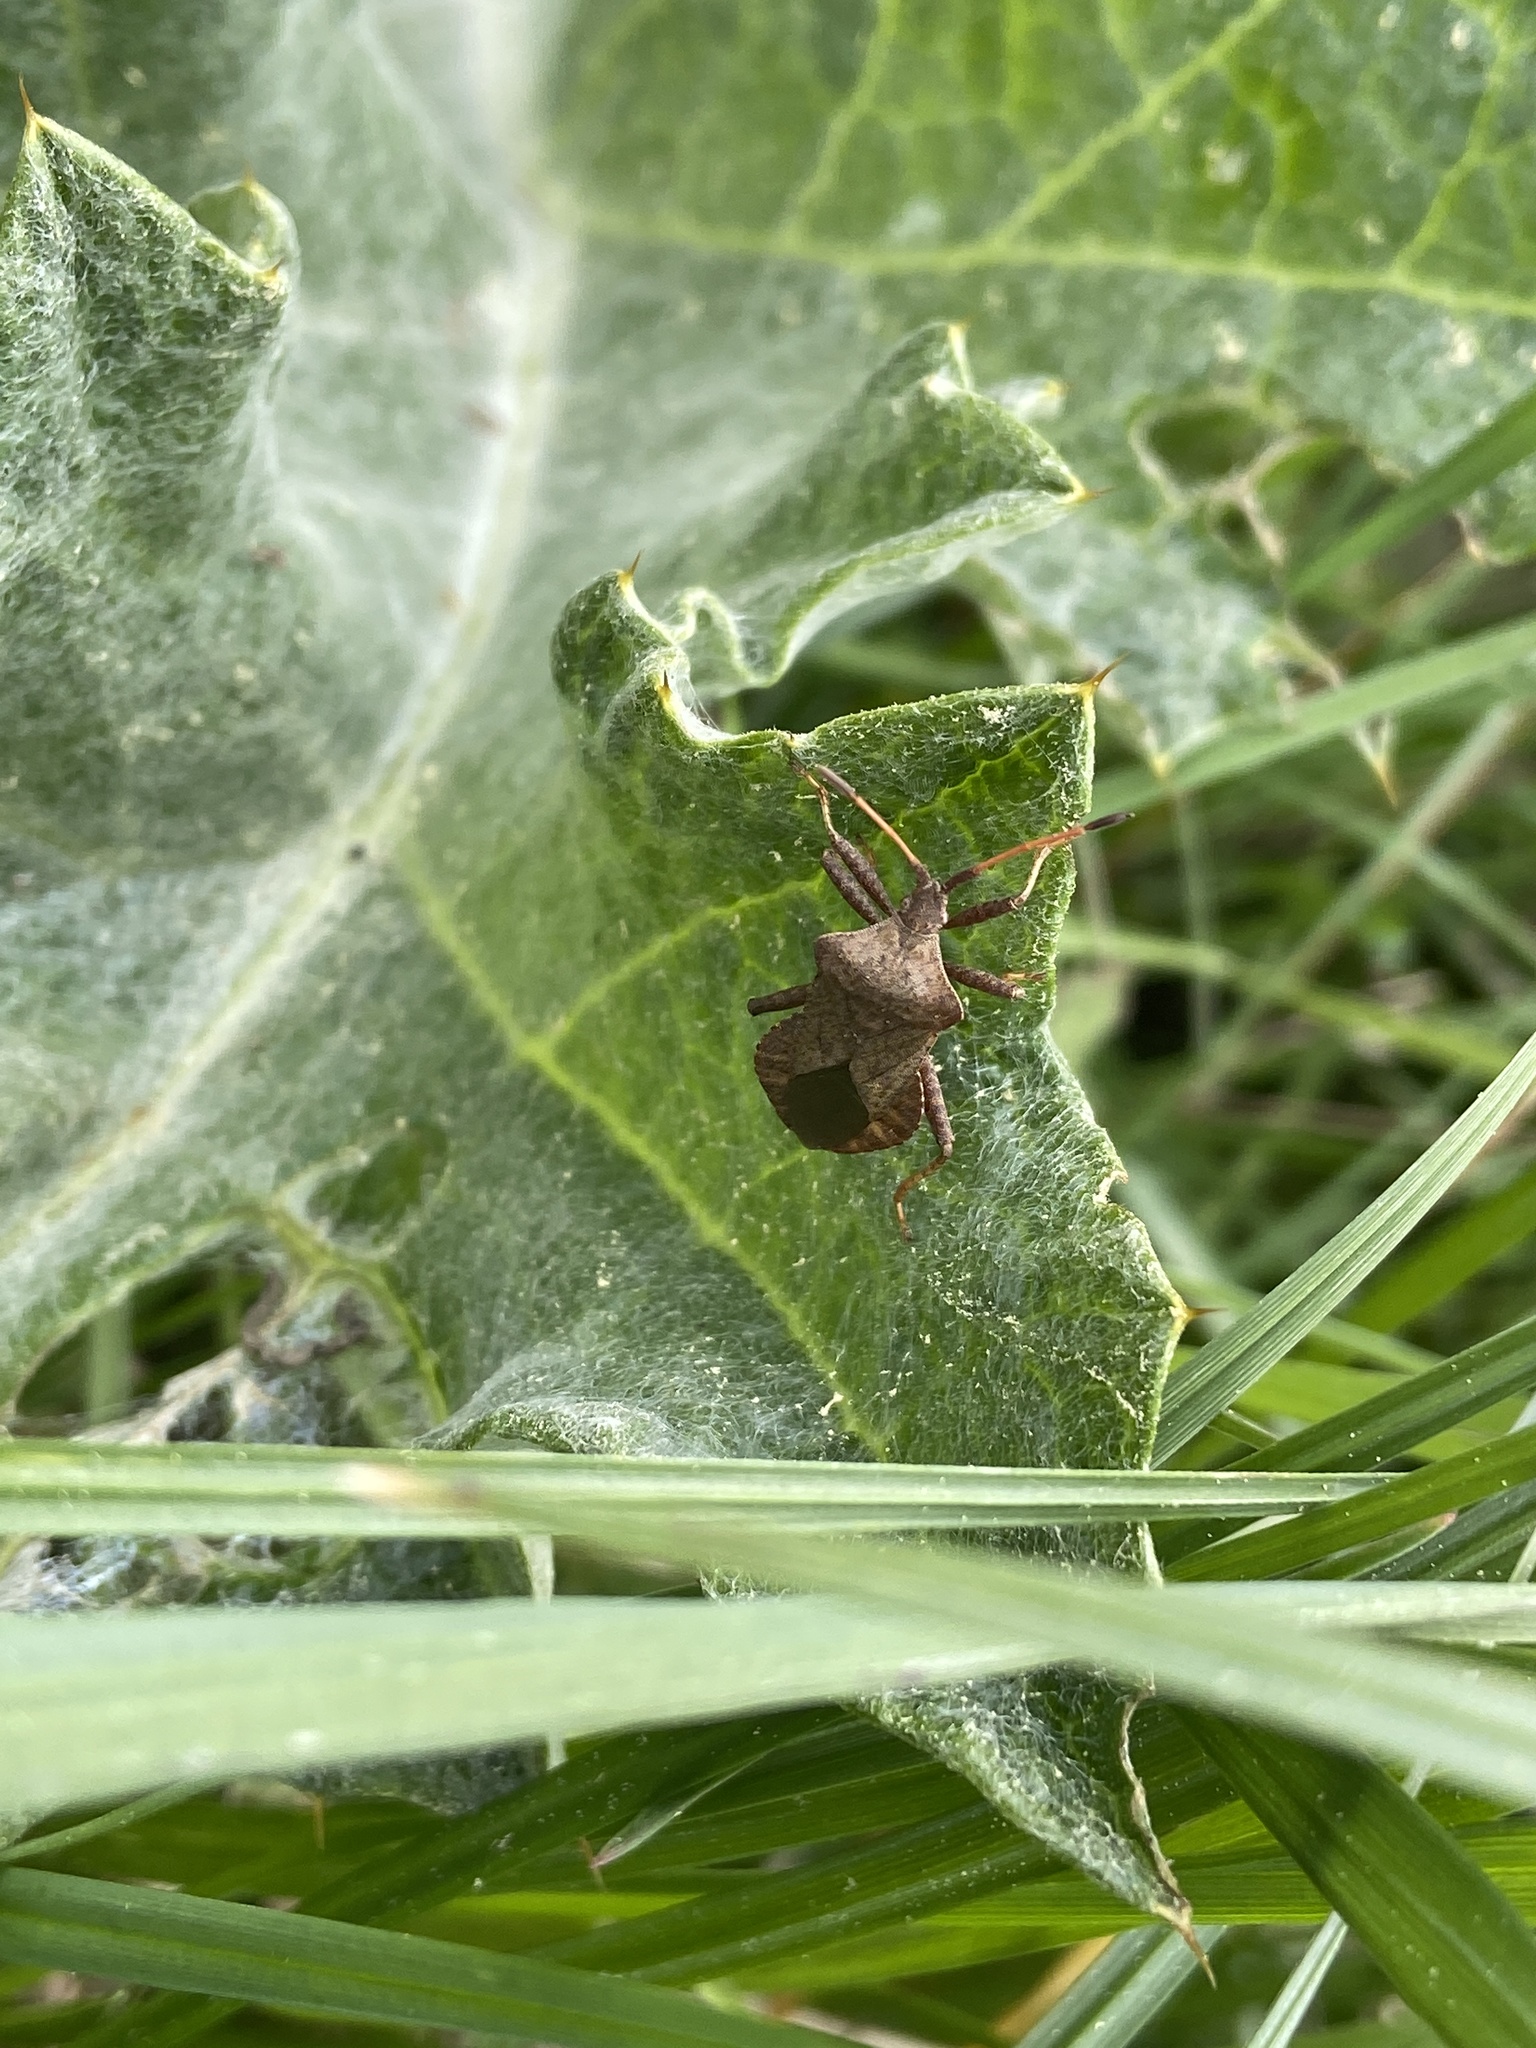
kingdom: Animalia
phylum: Arthropoda
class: Insecta
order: Hemiptera
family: Coreidae
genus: Coreus
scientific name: Coreus marginatus
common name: Dock bug
